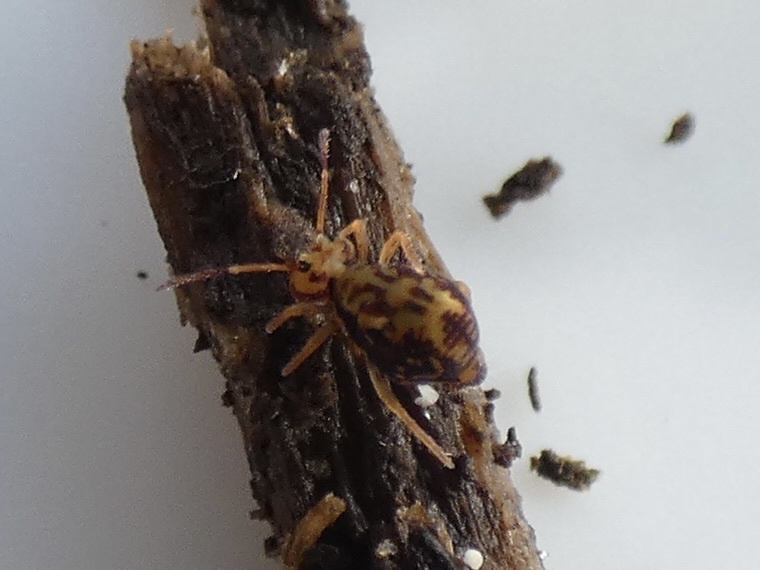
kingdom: Animalia
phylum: Arthropoda
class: Collembola
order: Symphypleona
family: Dicyrtomidae
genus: Dicyrtomina
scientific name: Dicyrtomina saundersi
